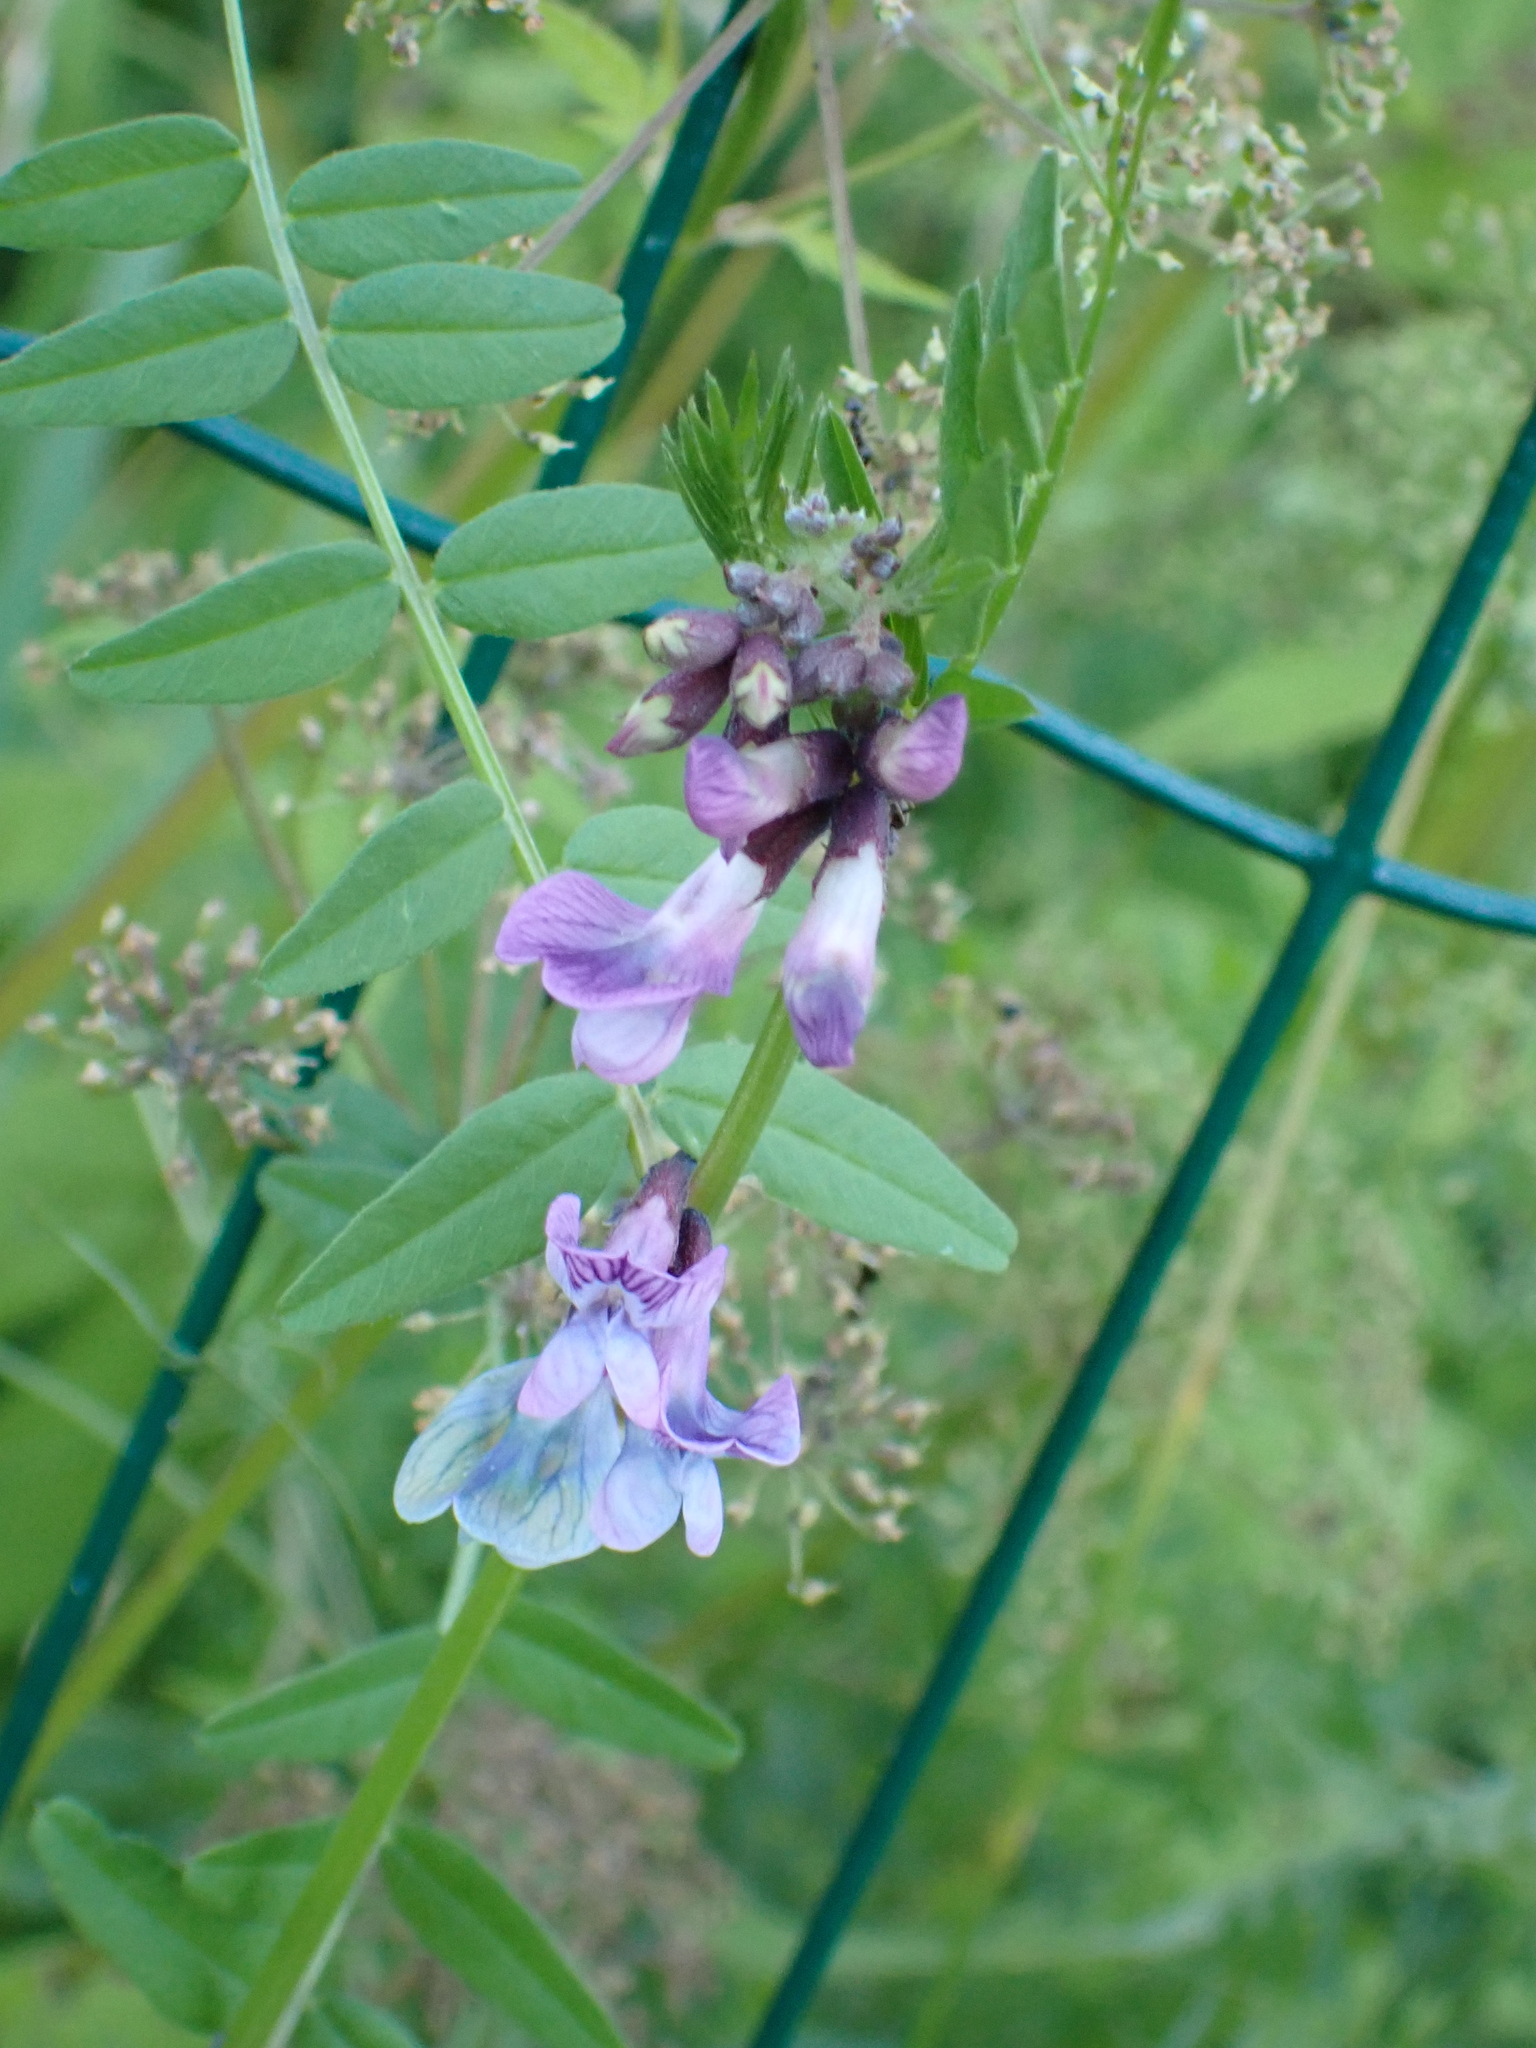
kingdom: Plantae
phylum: Tracheophyta
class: Magnoliopsida
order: Fabales
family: Fabaceae
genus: Vicia
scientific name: Vicia sepium
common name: Bush vetch
